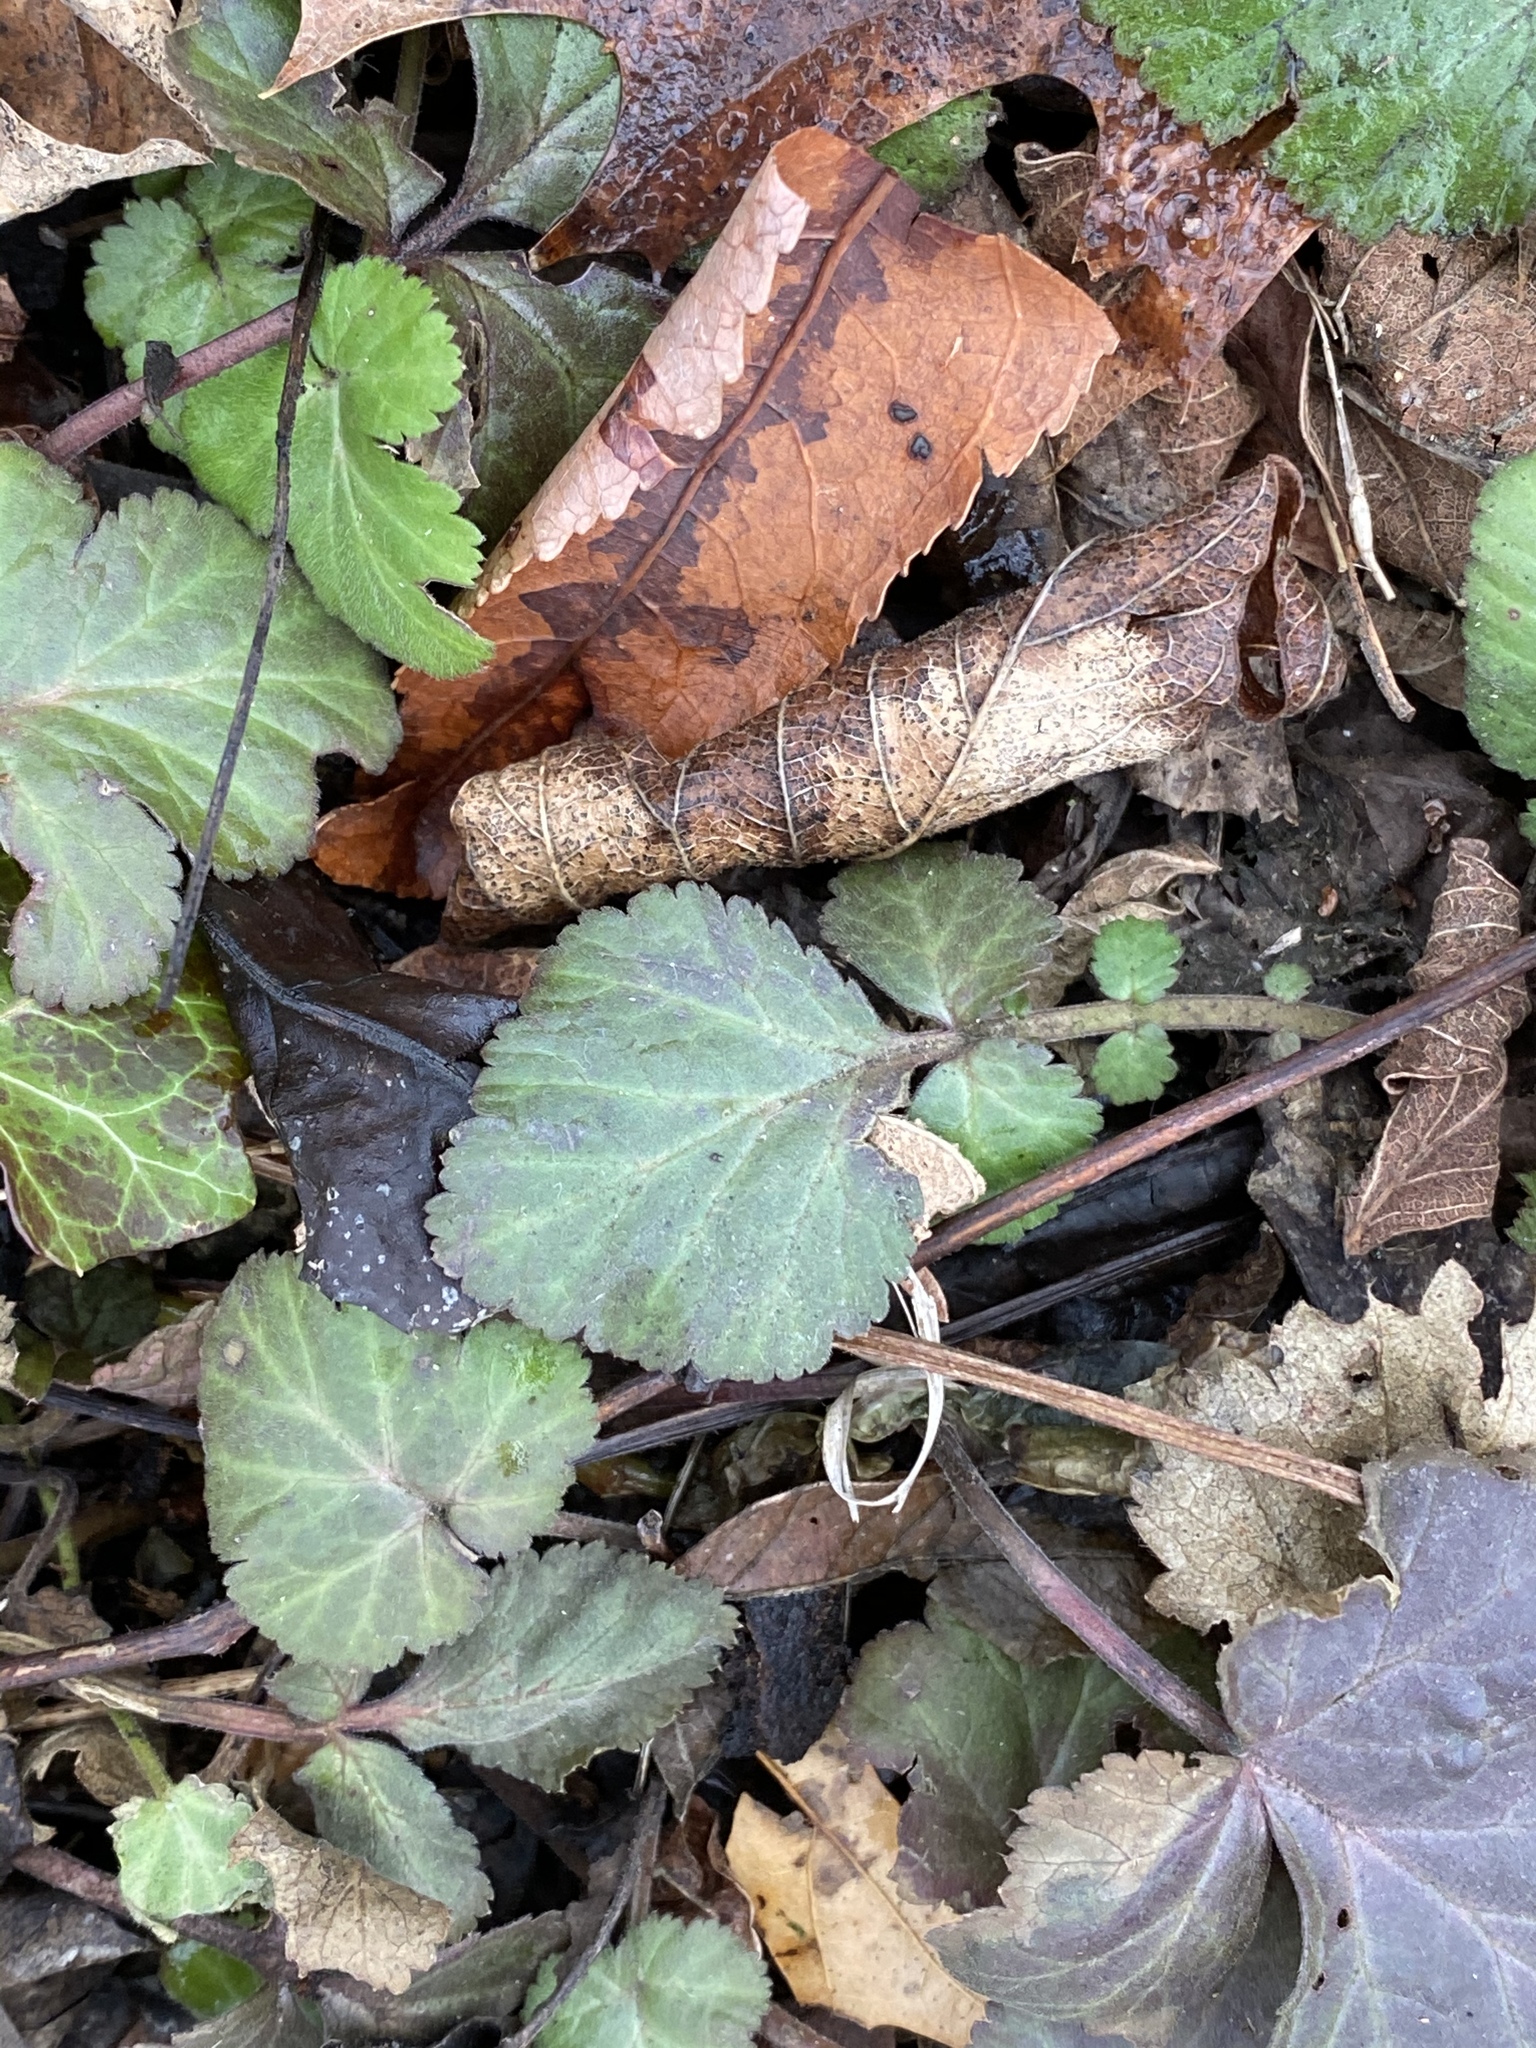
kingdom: Plantae
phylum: Tracheophyta
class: Magnoliopsida
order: Rosales
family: Rosaceae
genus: Geum
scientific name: Geum canadense
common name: White avens
